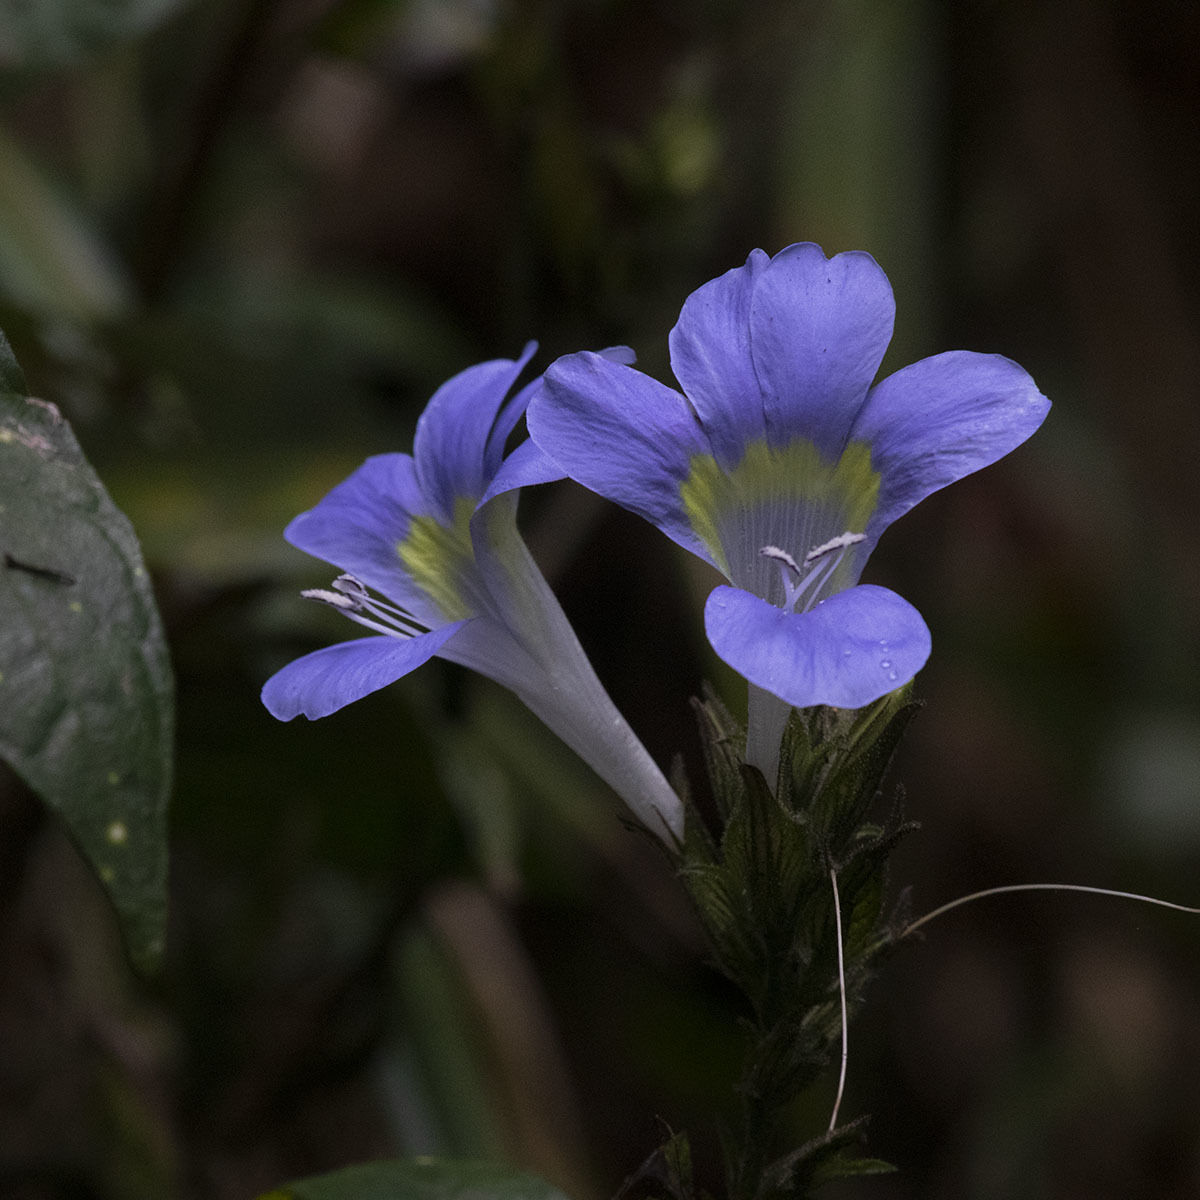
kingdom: Plantae
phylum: Tracheophyta
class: Magnoliopsida
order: Lamiales
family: Acanthaceae
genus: Barleria
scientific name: Barleria courtallica
